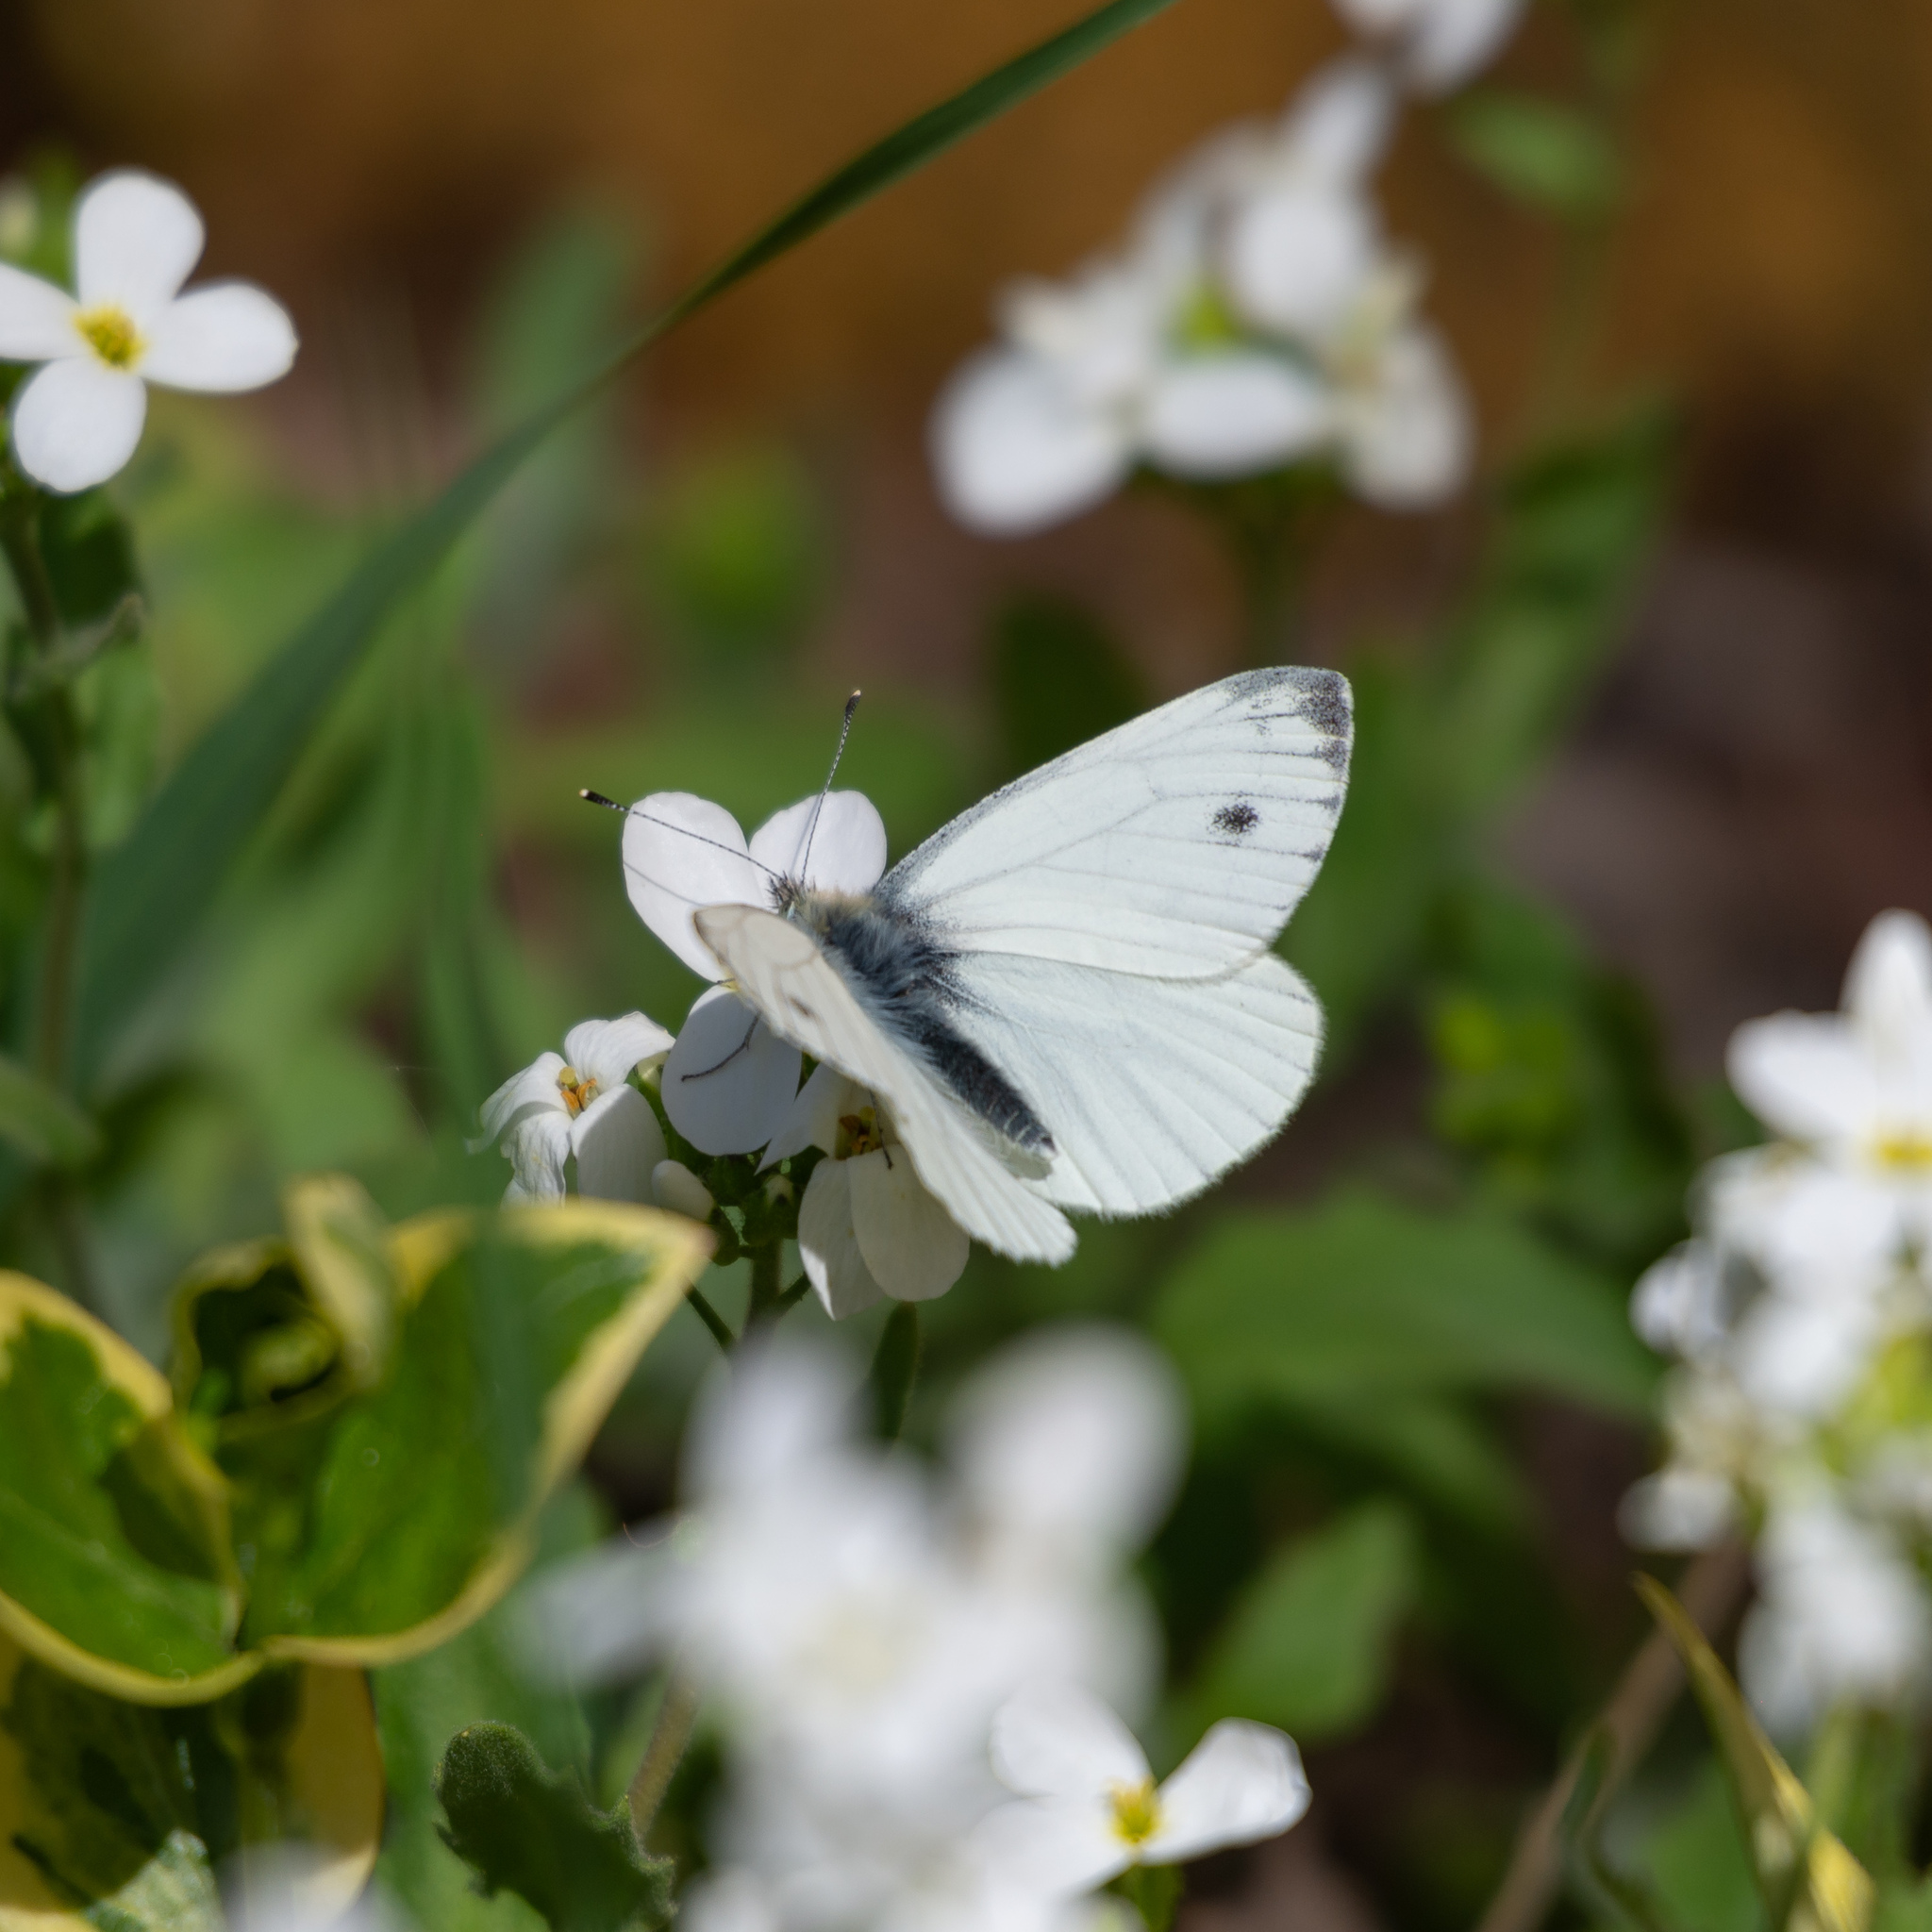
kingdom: Animalia
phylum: Arthropoda
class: Insecta
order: Lepidoptera
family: Pieridae
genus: Pieris
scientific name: Pieris napi
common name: Green-veined white
